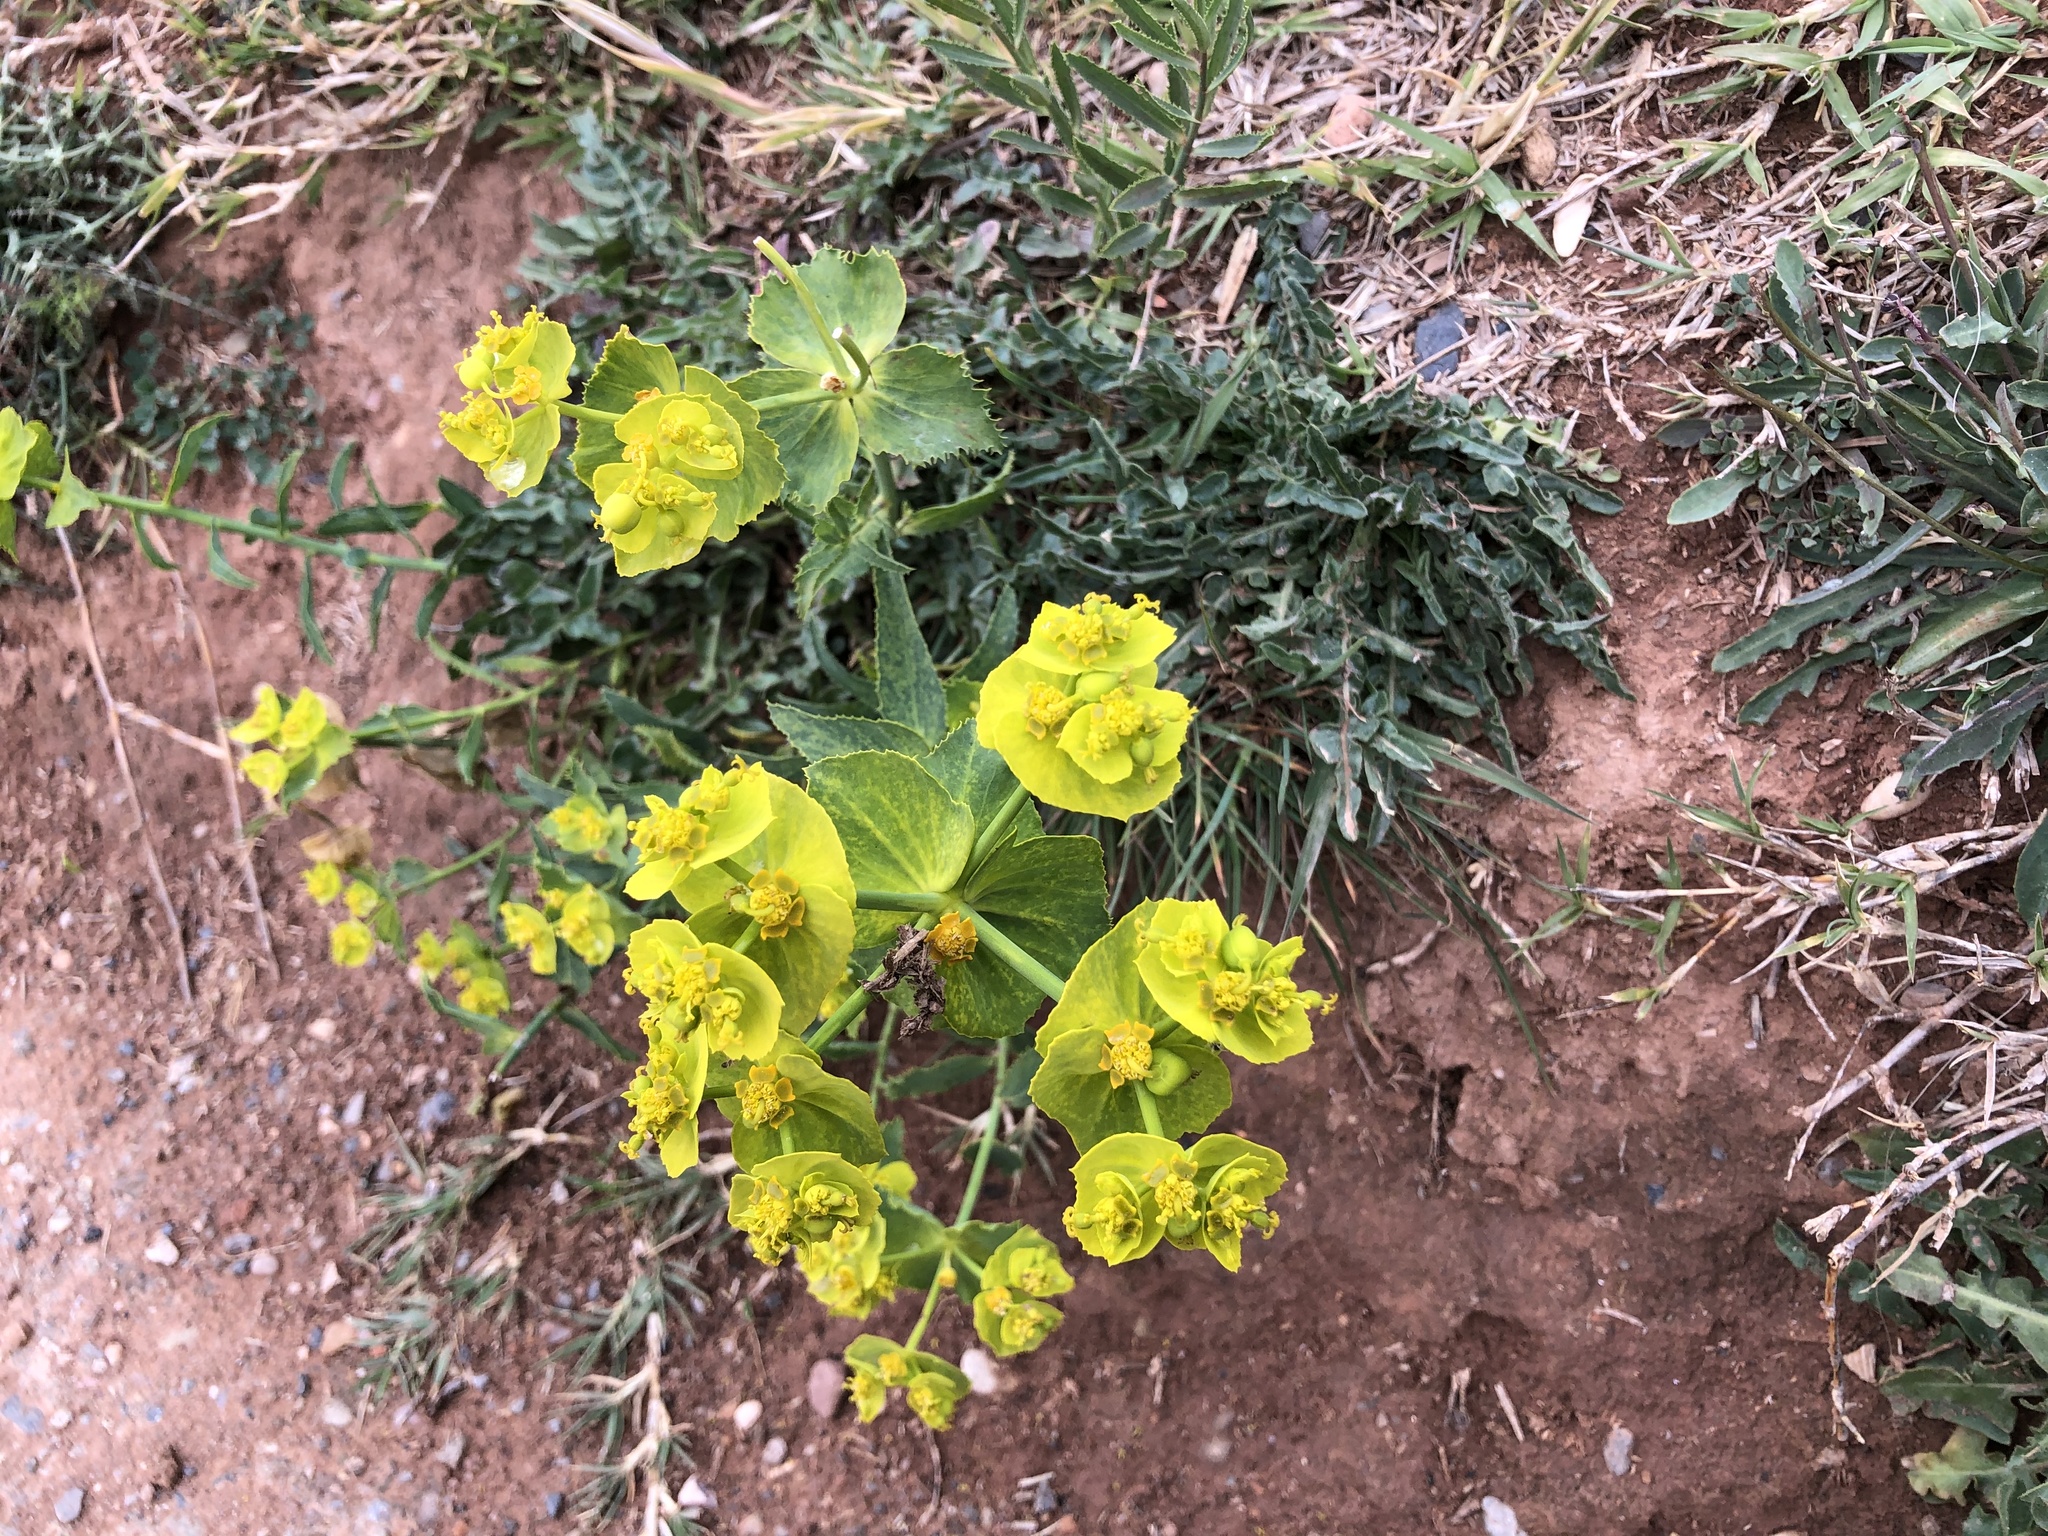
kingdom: Plantae
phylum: Tracheophyta
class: Magnoliopsida
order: Malpighiales
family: Euphorbiaceae
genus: Euphorbia
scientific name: Euphorbia serrata
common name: Serrate spurge
